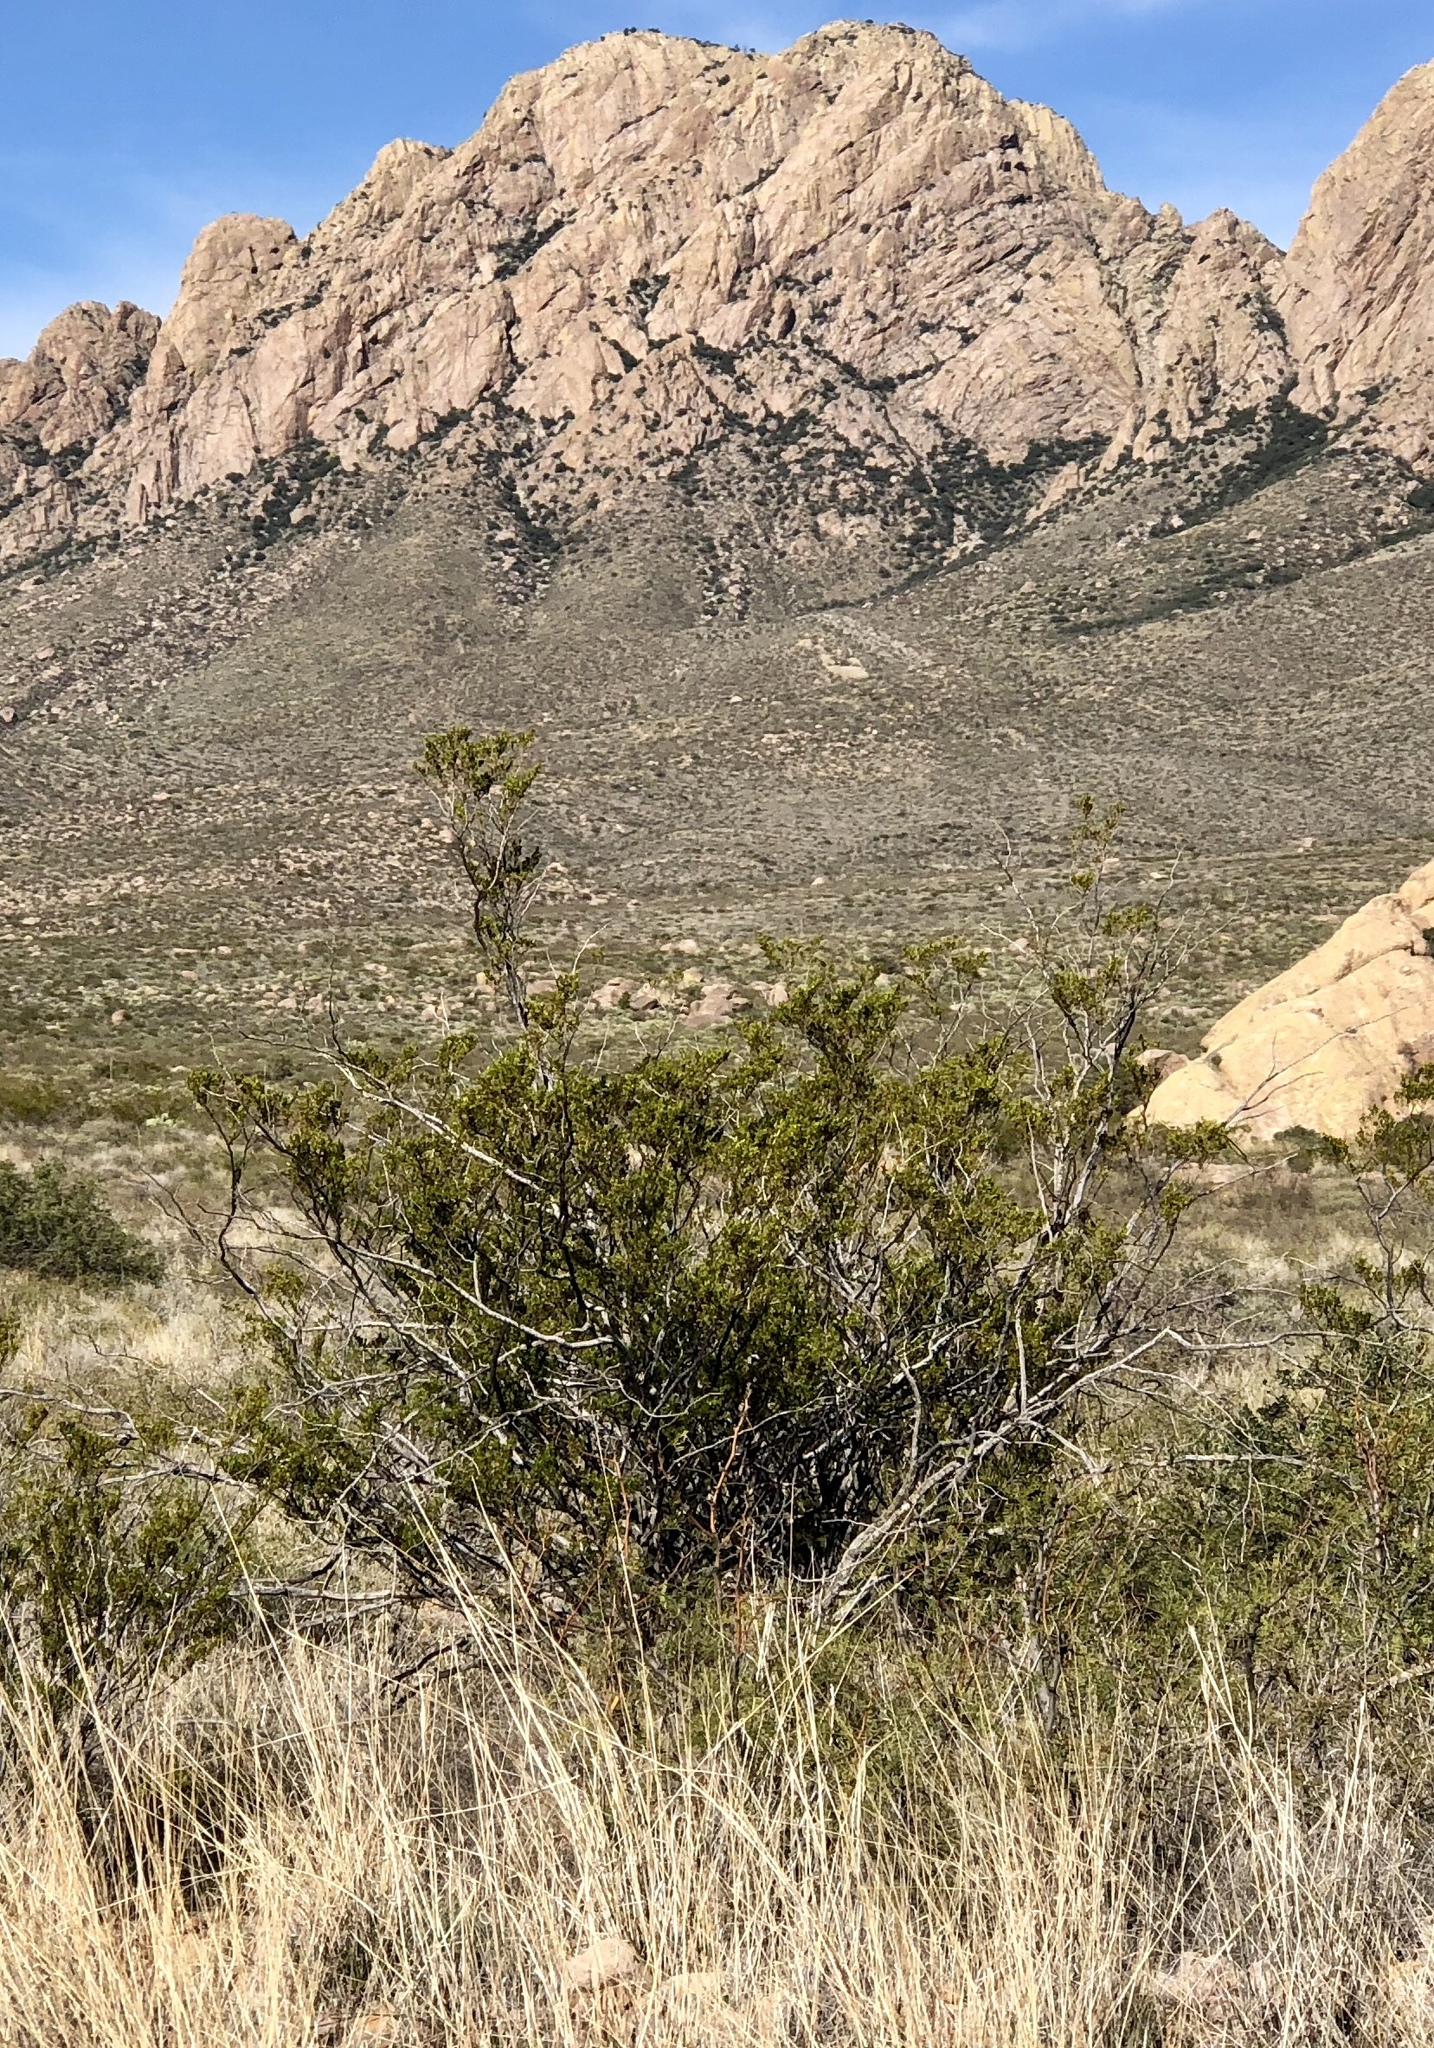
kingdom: Plantae
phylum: Tracheophyta
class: Magnoliopsida
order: Zygophyllales
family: Zygophyllaceae
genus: Larrea
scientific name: Larrea tridentata
